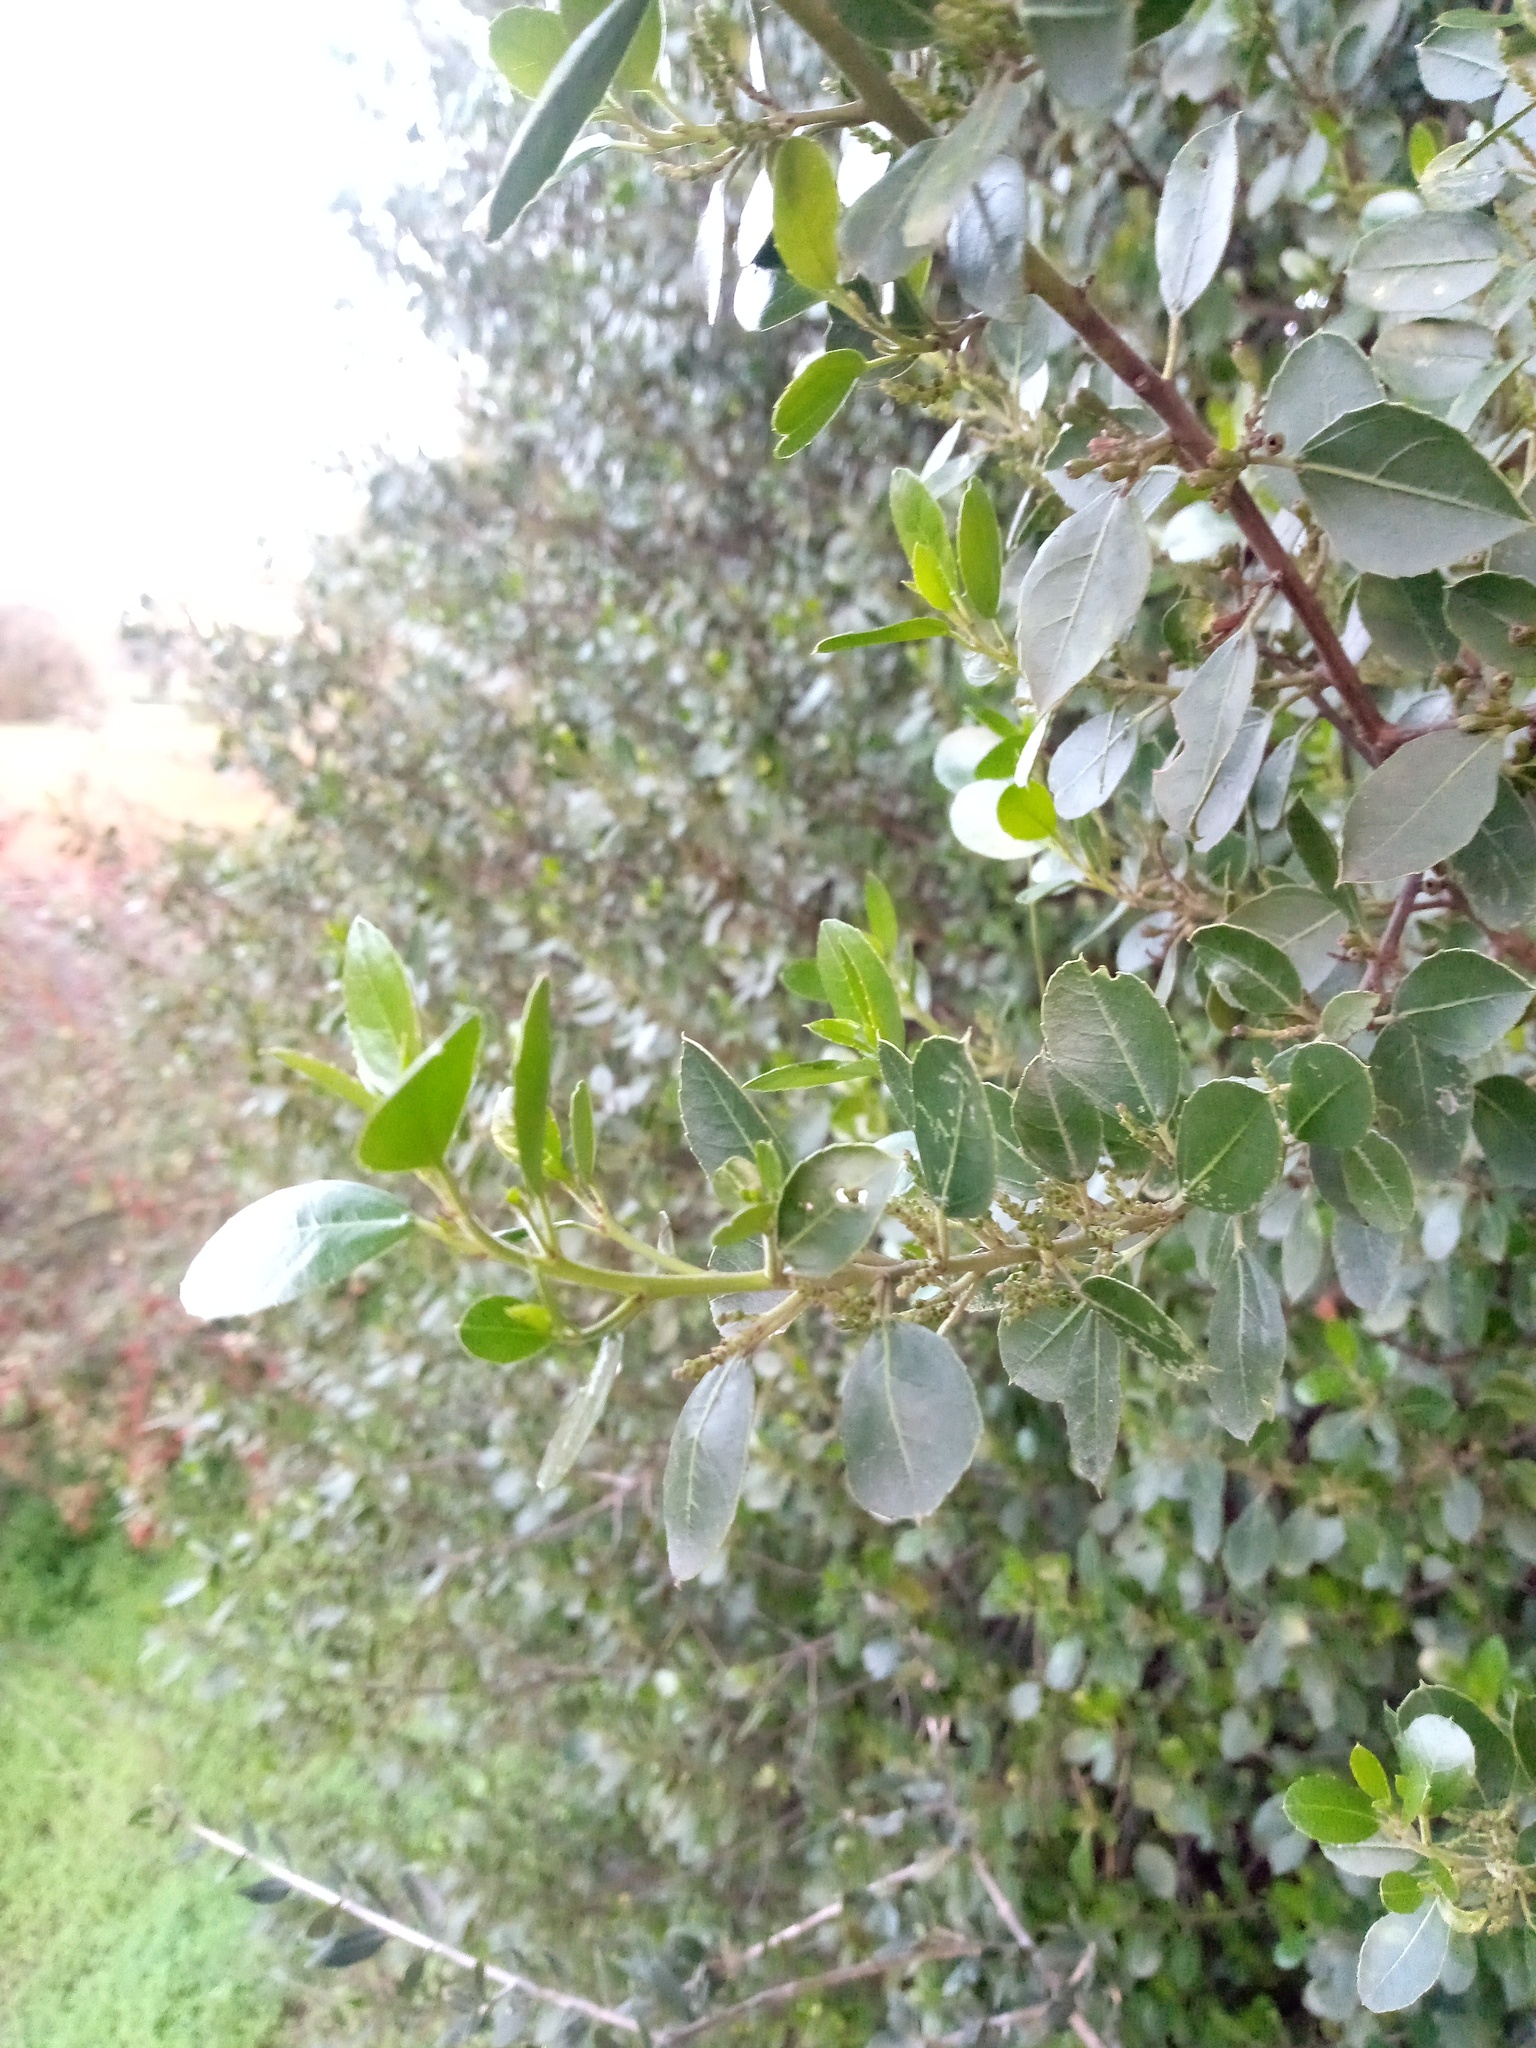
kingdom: Plantae
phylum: Tracheophyta
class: Magnoliopsida
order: Rosales
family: Rhamnaceae
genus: Rhamnus
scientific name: Rhamnus alaternus
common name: Mediterranean buckthorn
